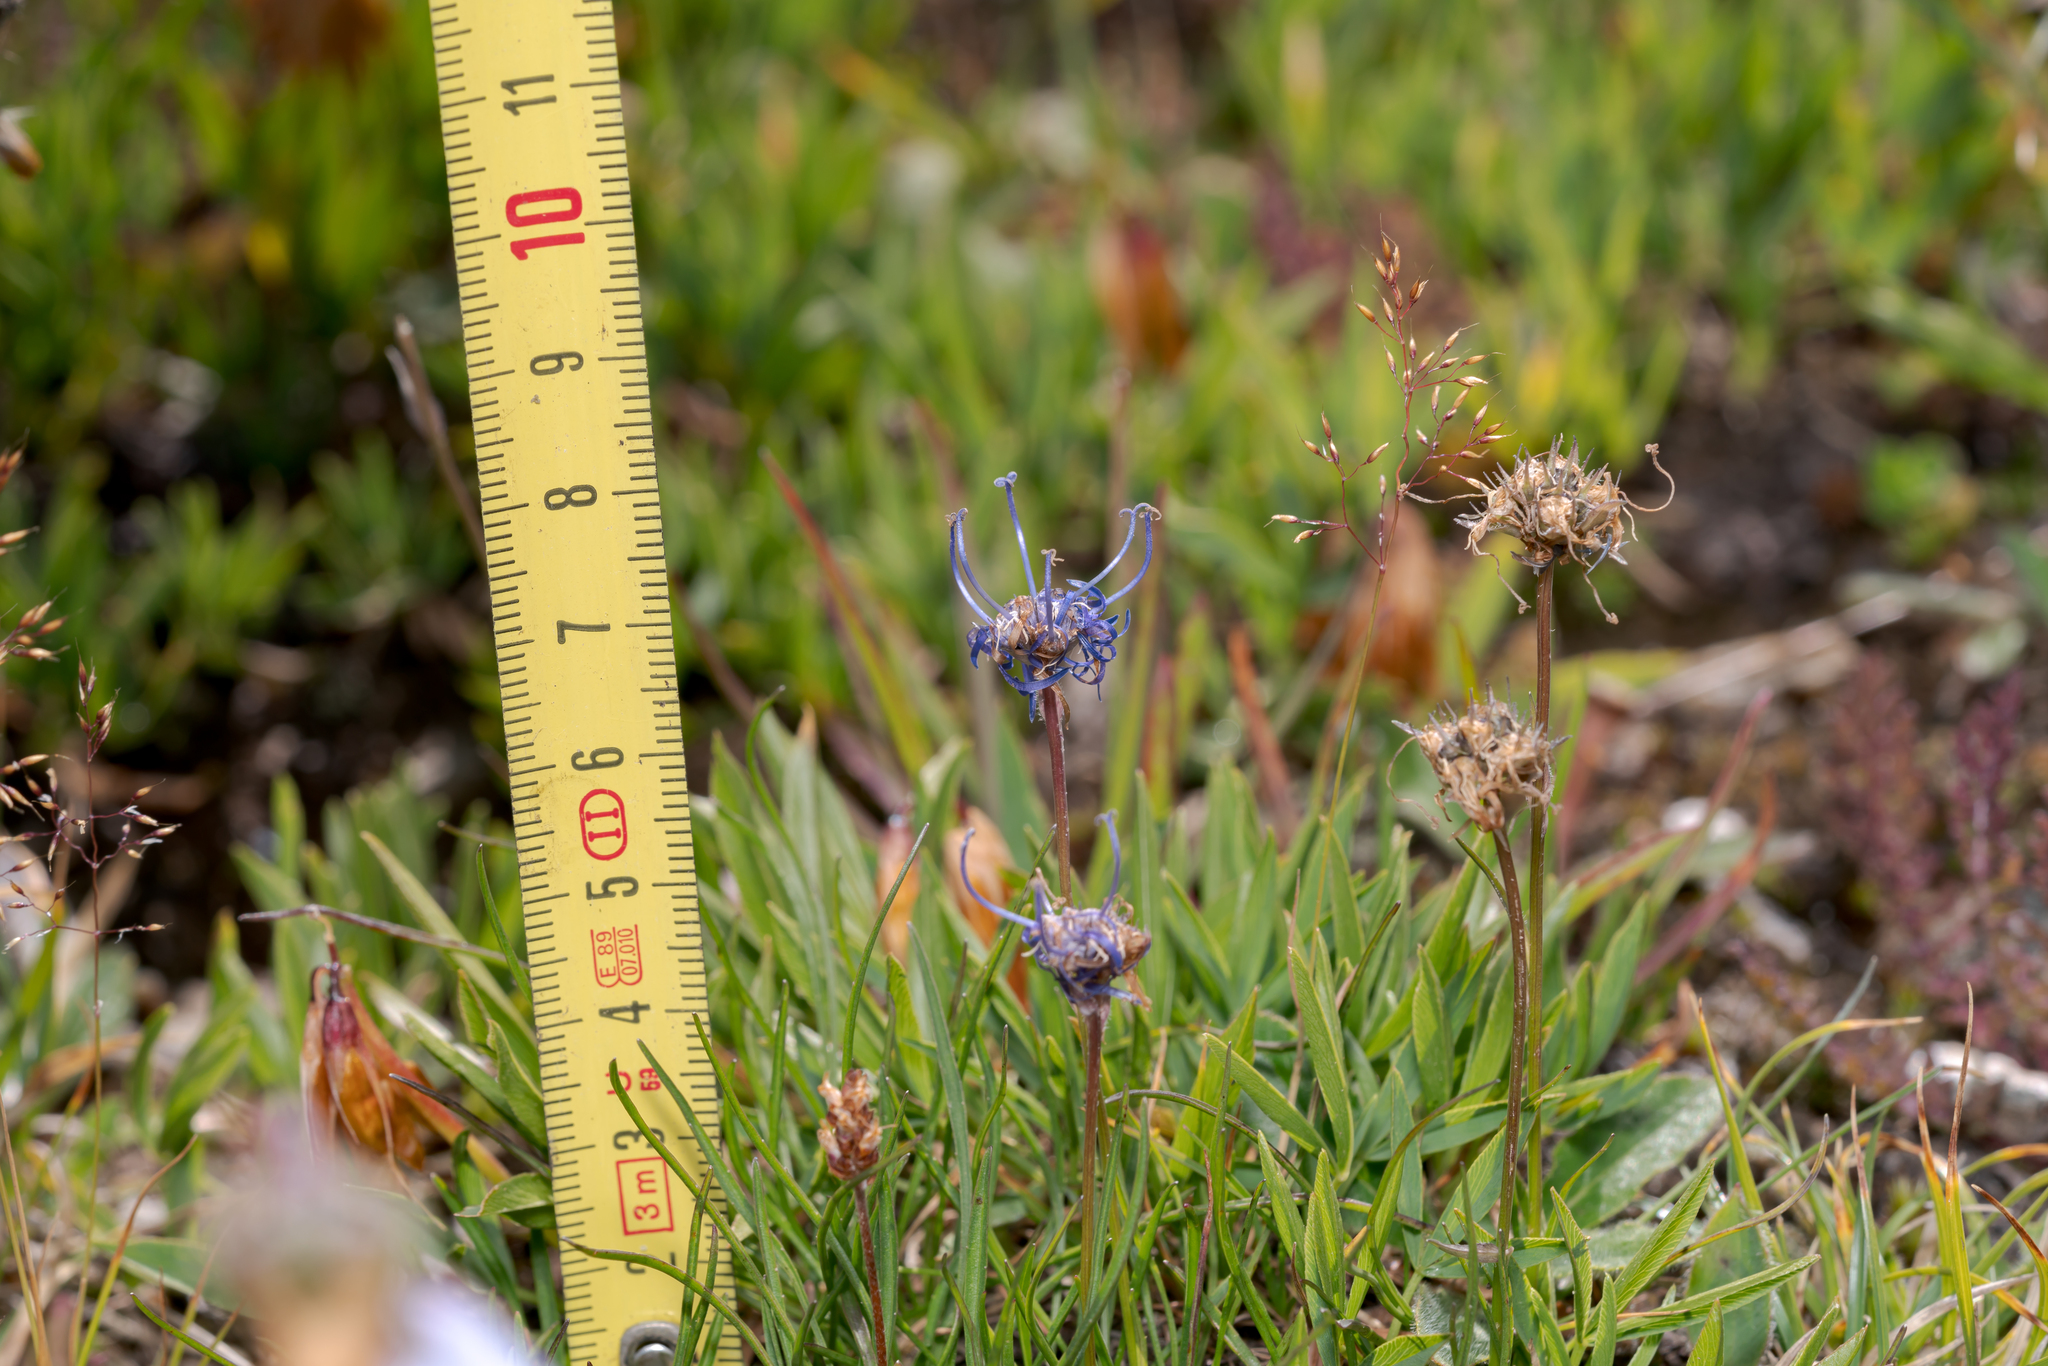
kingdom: Plantae
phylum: Tracheophyta
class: Magnoliopsida
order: Asterales
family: Campanulaceae
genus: Phyteuma
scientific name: Phyteuma hemisphaericum
